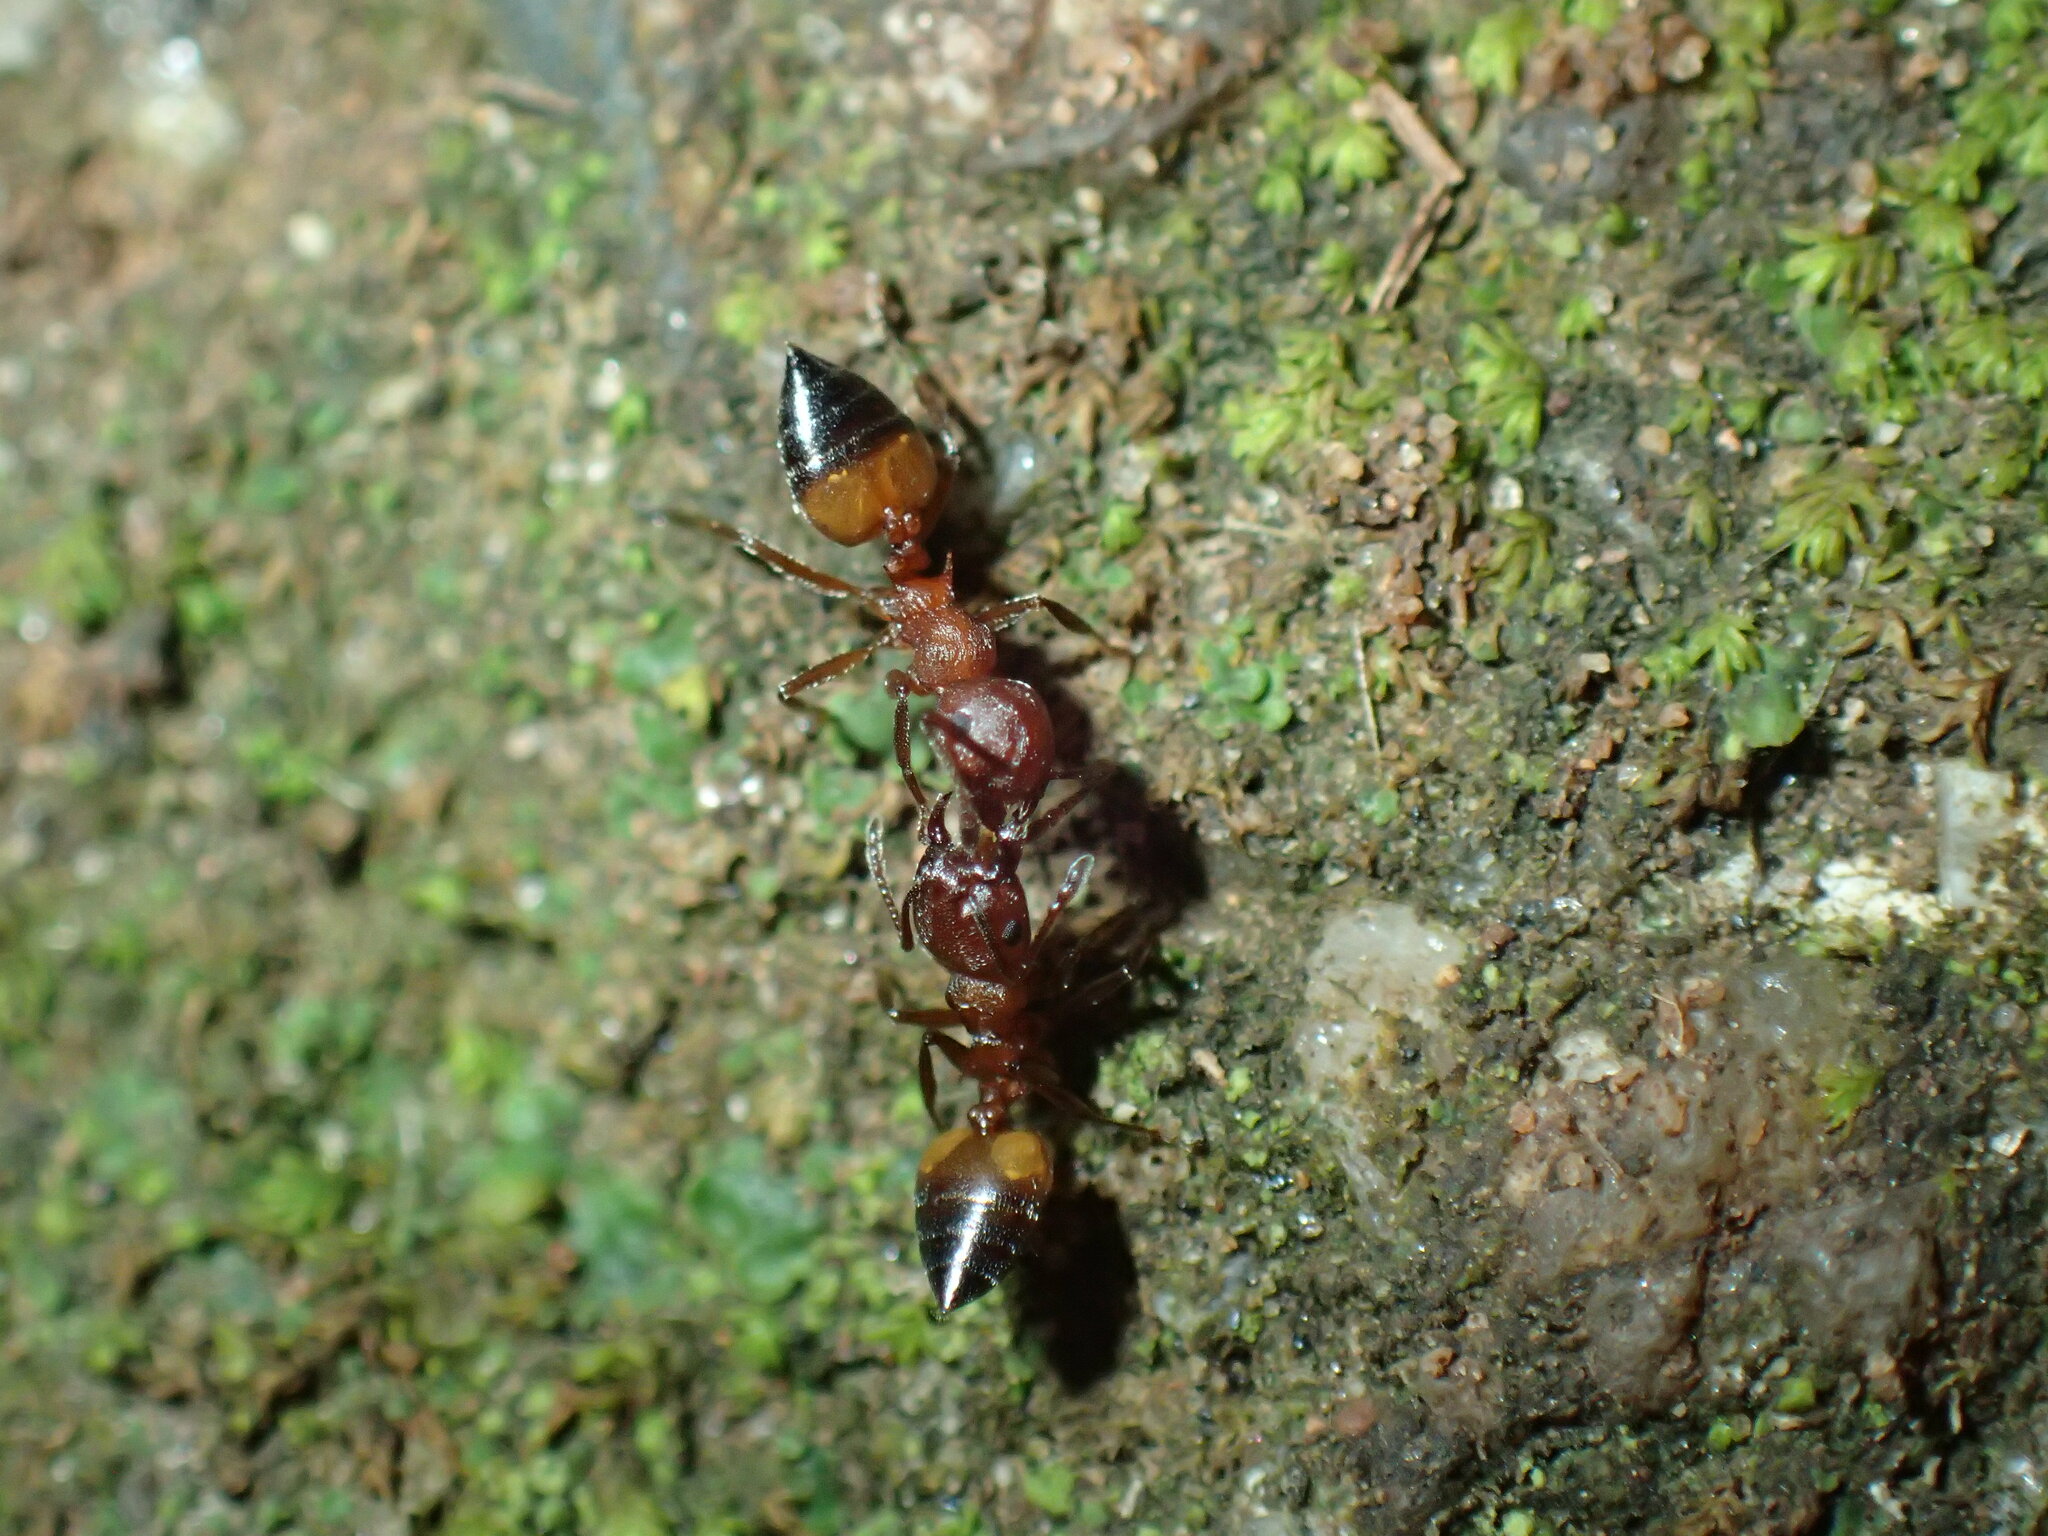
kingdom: Animalia
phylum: Arthropoda
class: Insecta
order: Hymenoptera
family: Formicidae
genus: Crematogaster
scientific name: Crematogaster castanea
